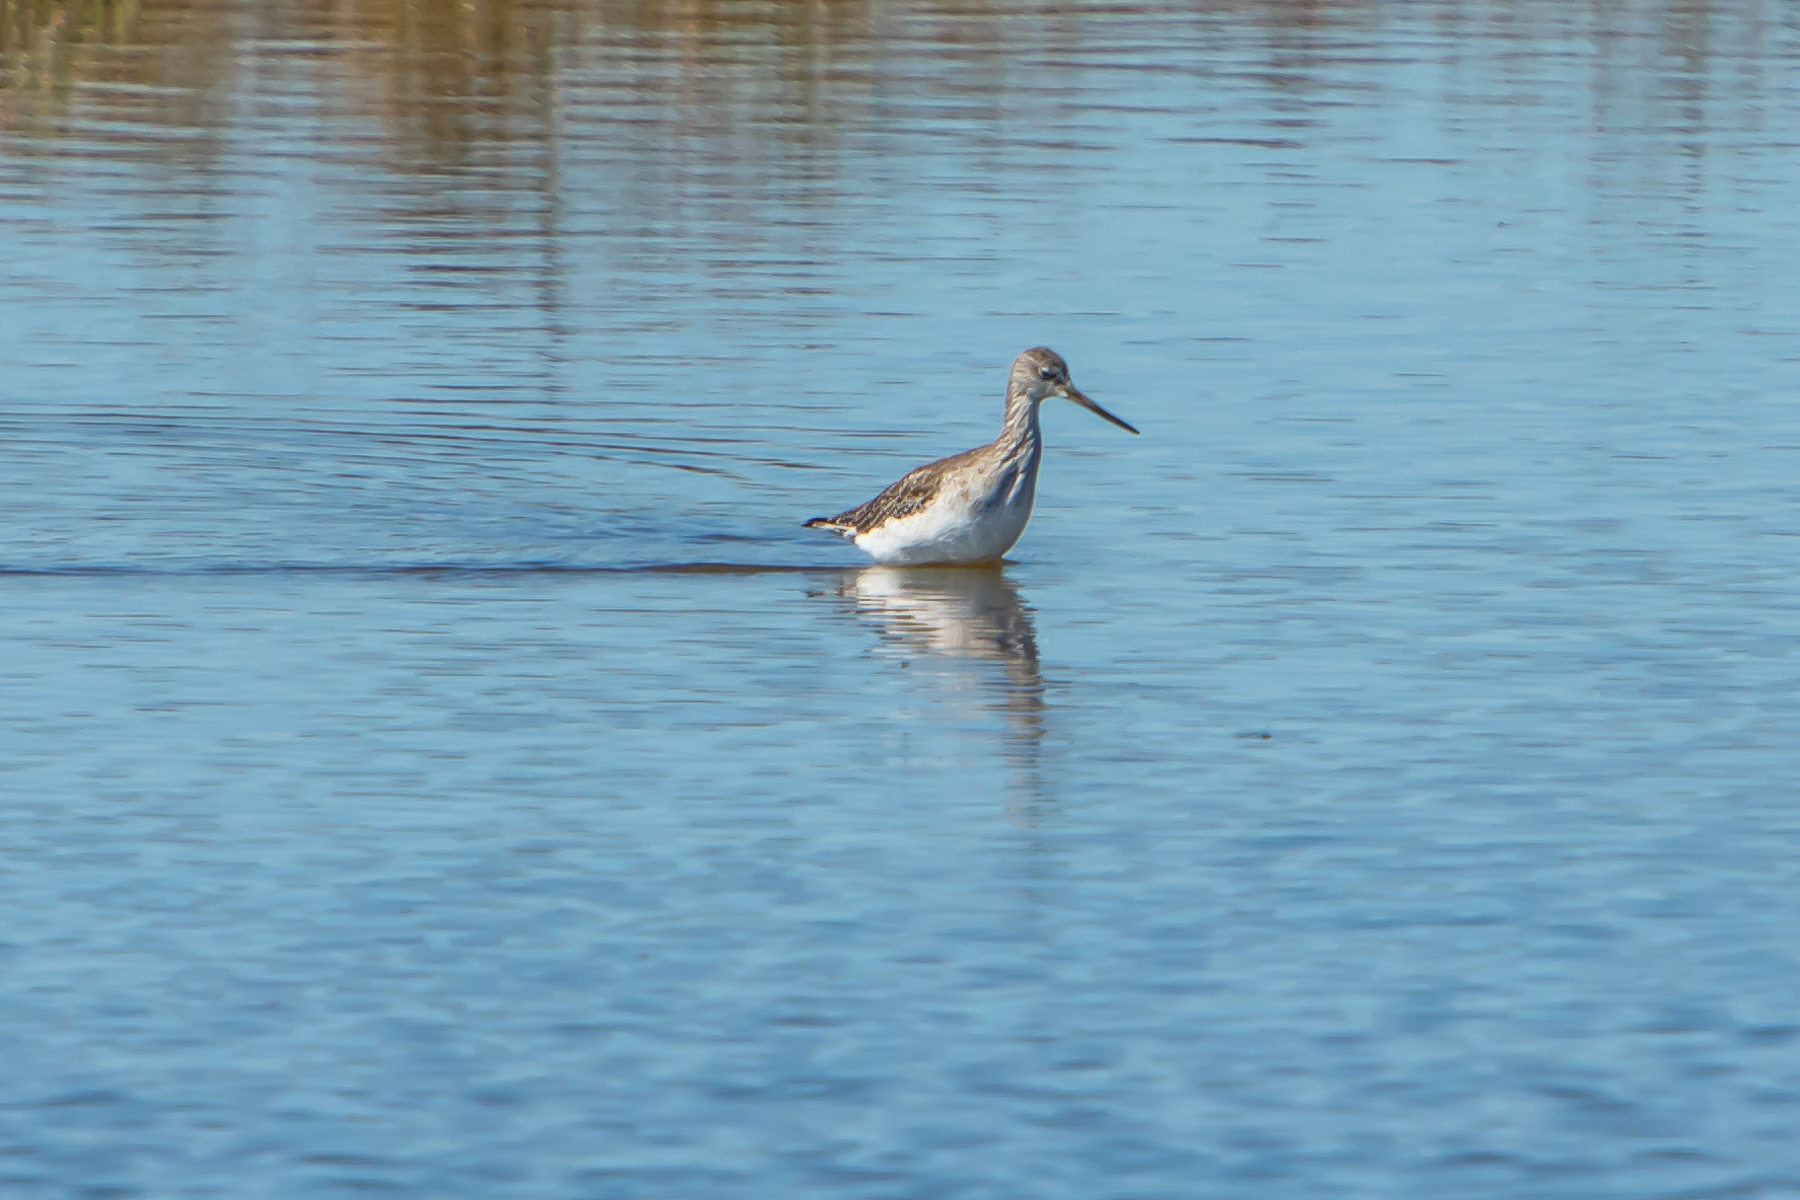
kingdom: Animalia
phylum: Chordata
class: Aves
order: Charadriiformes
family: Scolopacidae
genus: Tringa
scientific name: Tringa melanoleuca
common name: Greater yellowlegs
